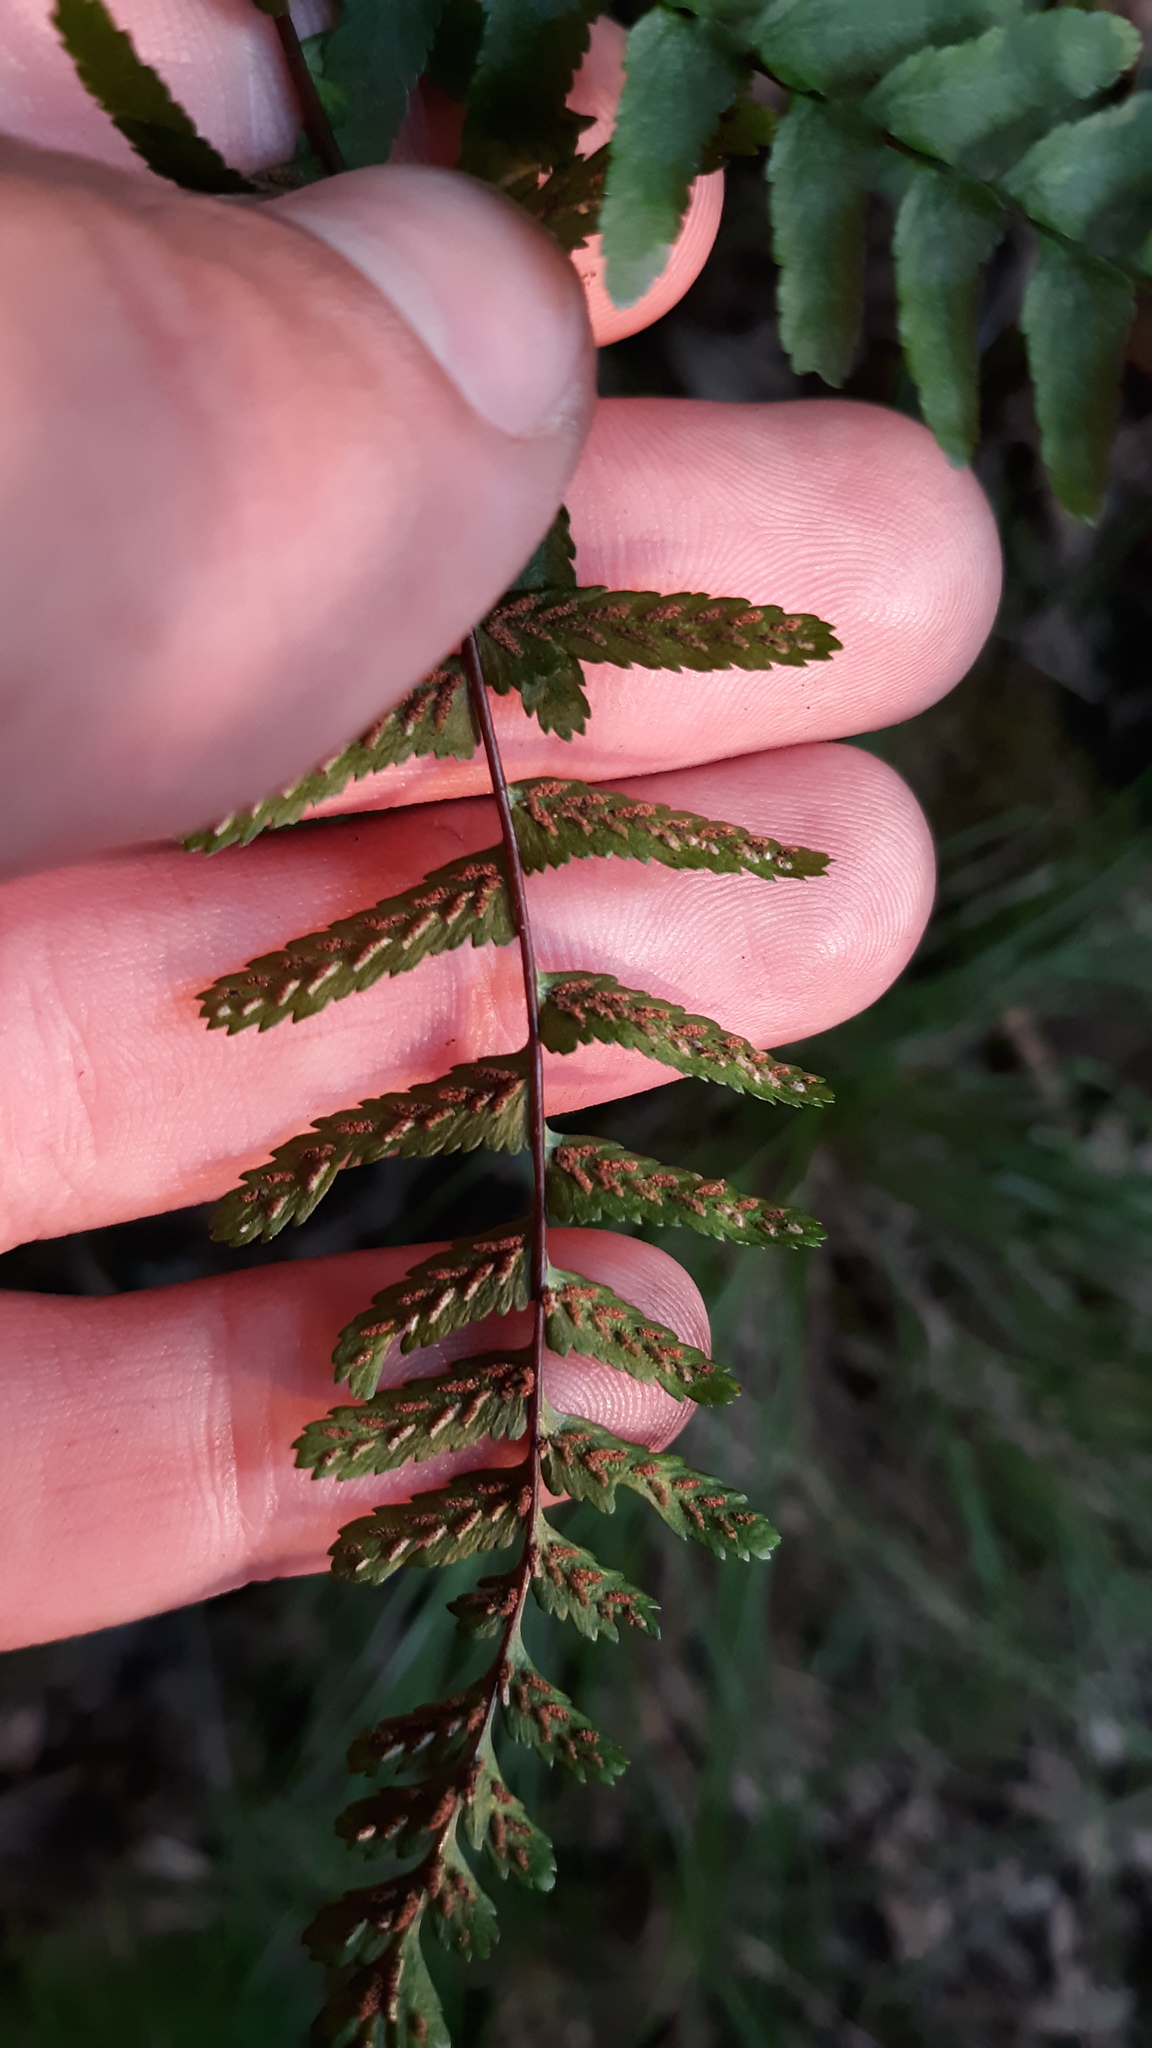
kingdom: Plantae
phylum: Tracheophyta
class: Polypodiopsida
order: Polypodiales
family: Aspleniaceae
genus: Asplenium
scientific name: Asplenium platyneuron
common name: Ebony spleenwort
